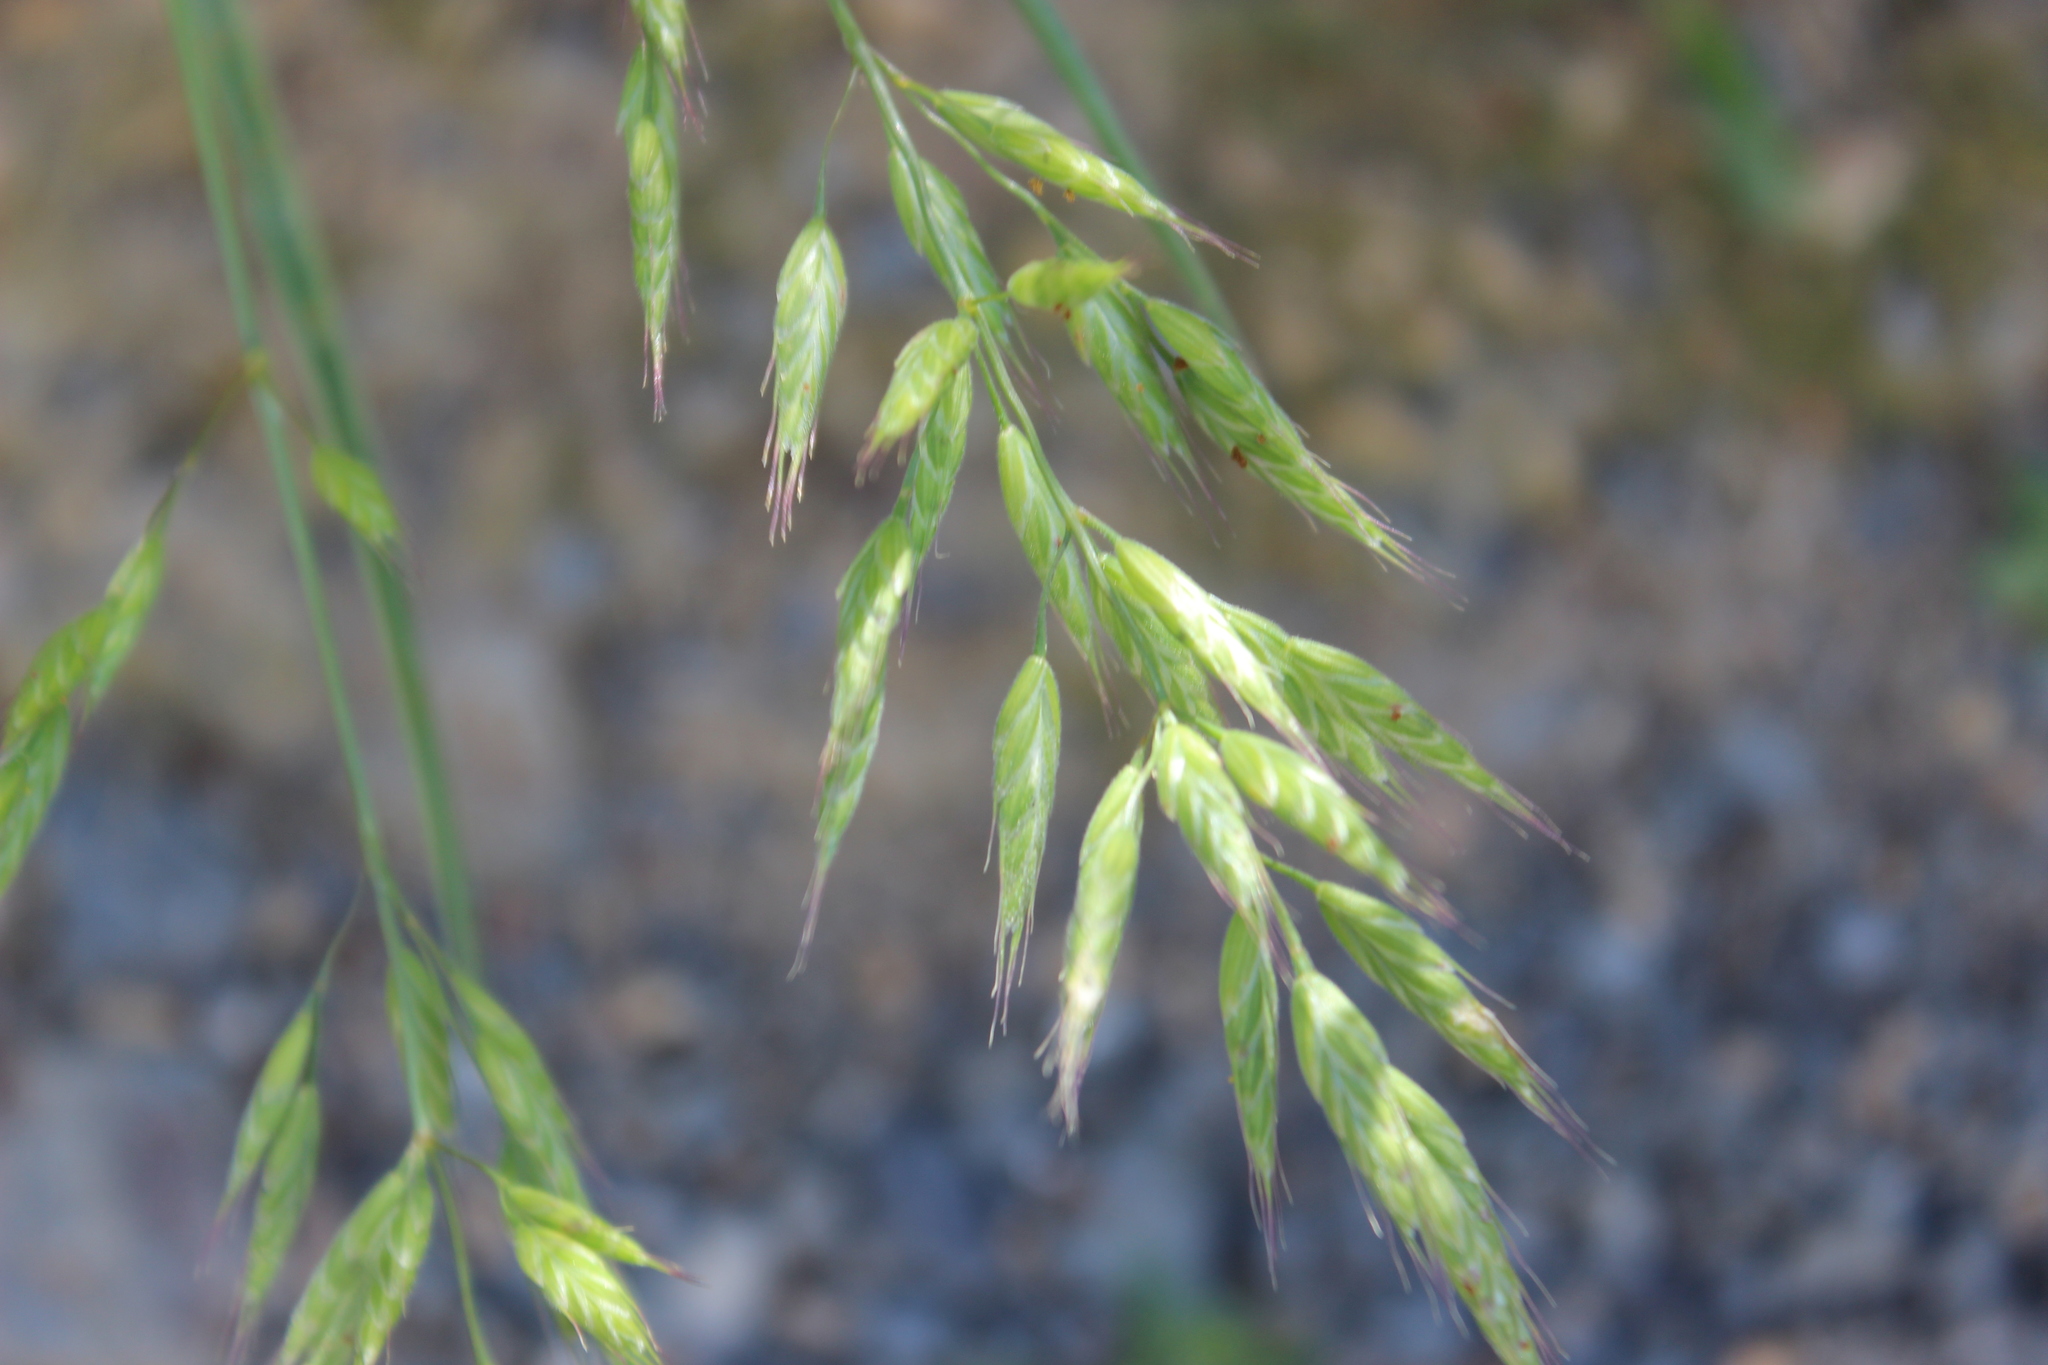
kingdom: Plantae
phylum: Tracheophyta
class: Liliopsida
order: Poales
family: Poaceae
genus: Bromus
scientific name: Bromus hordeaceus
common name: Soft brome
